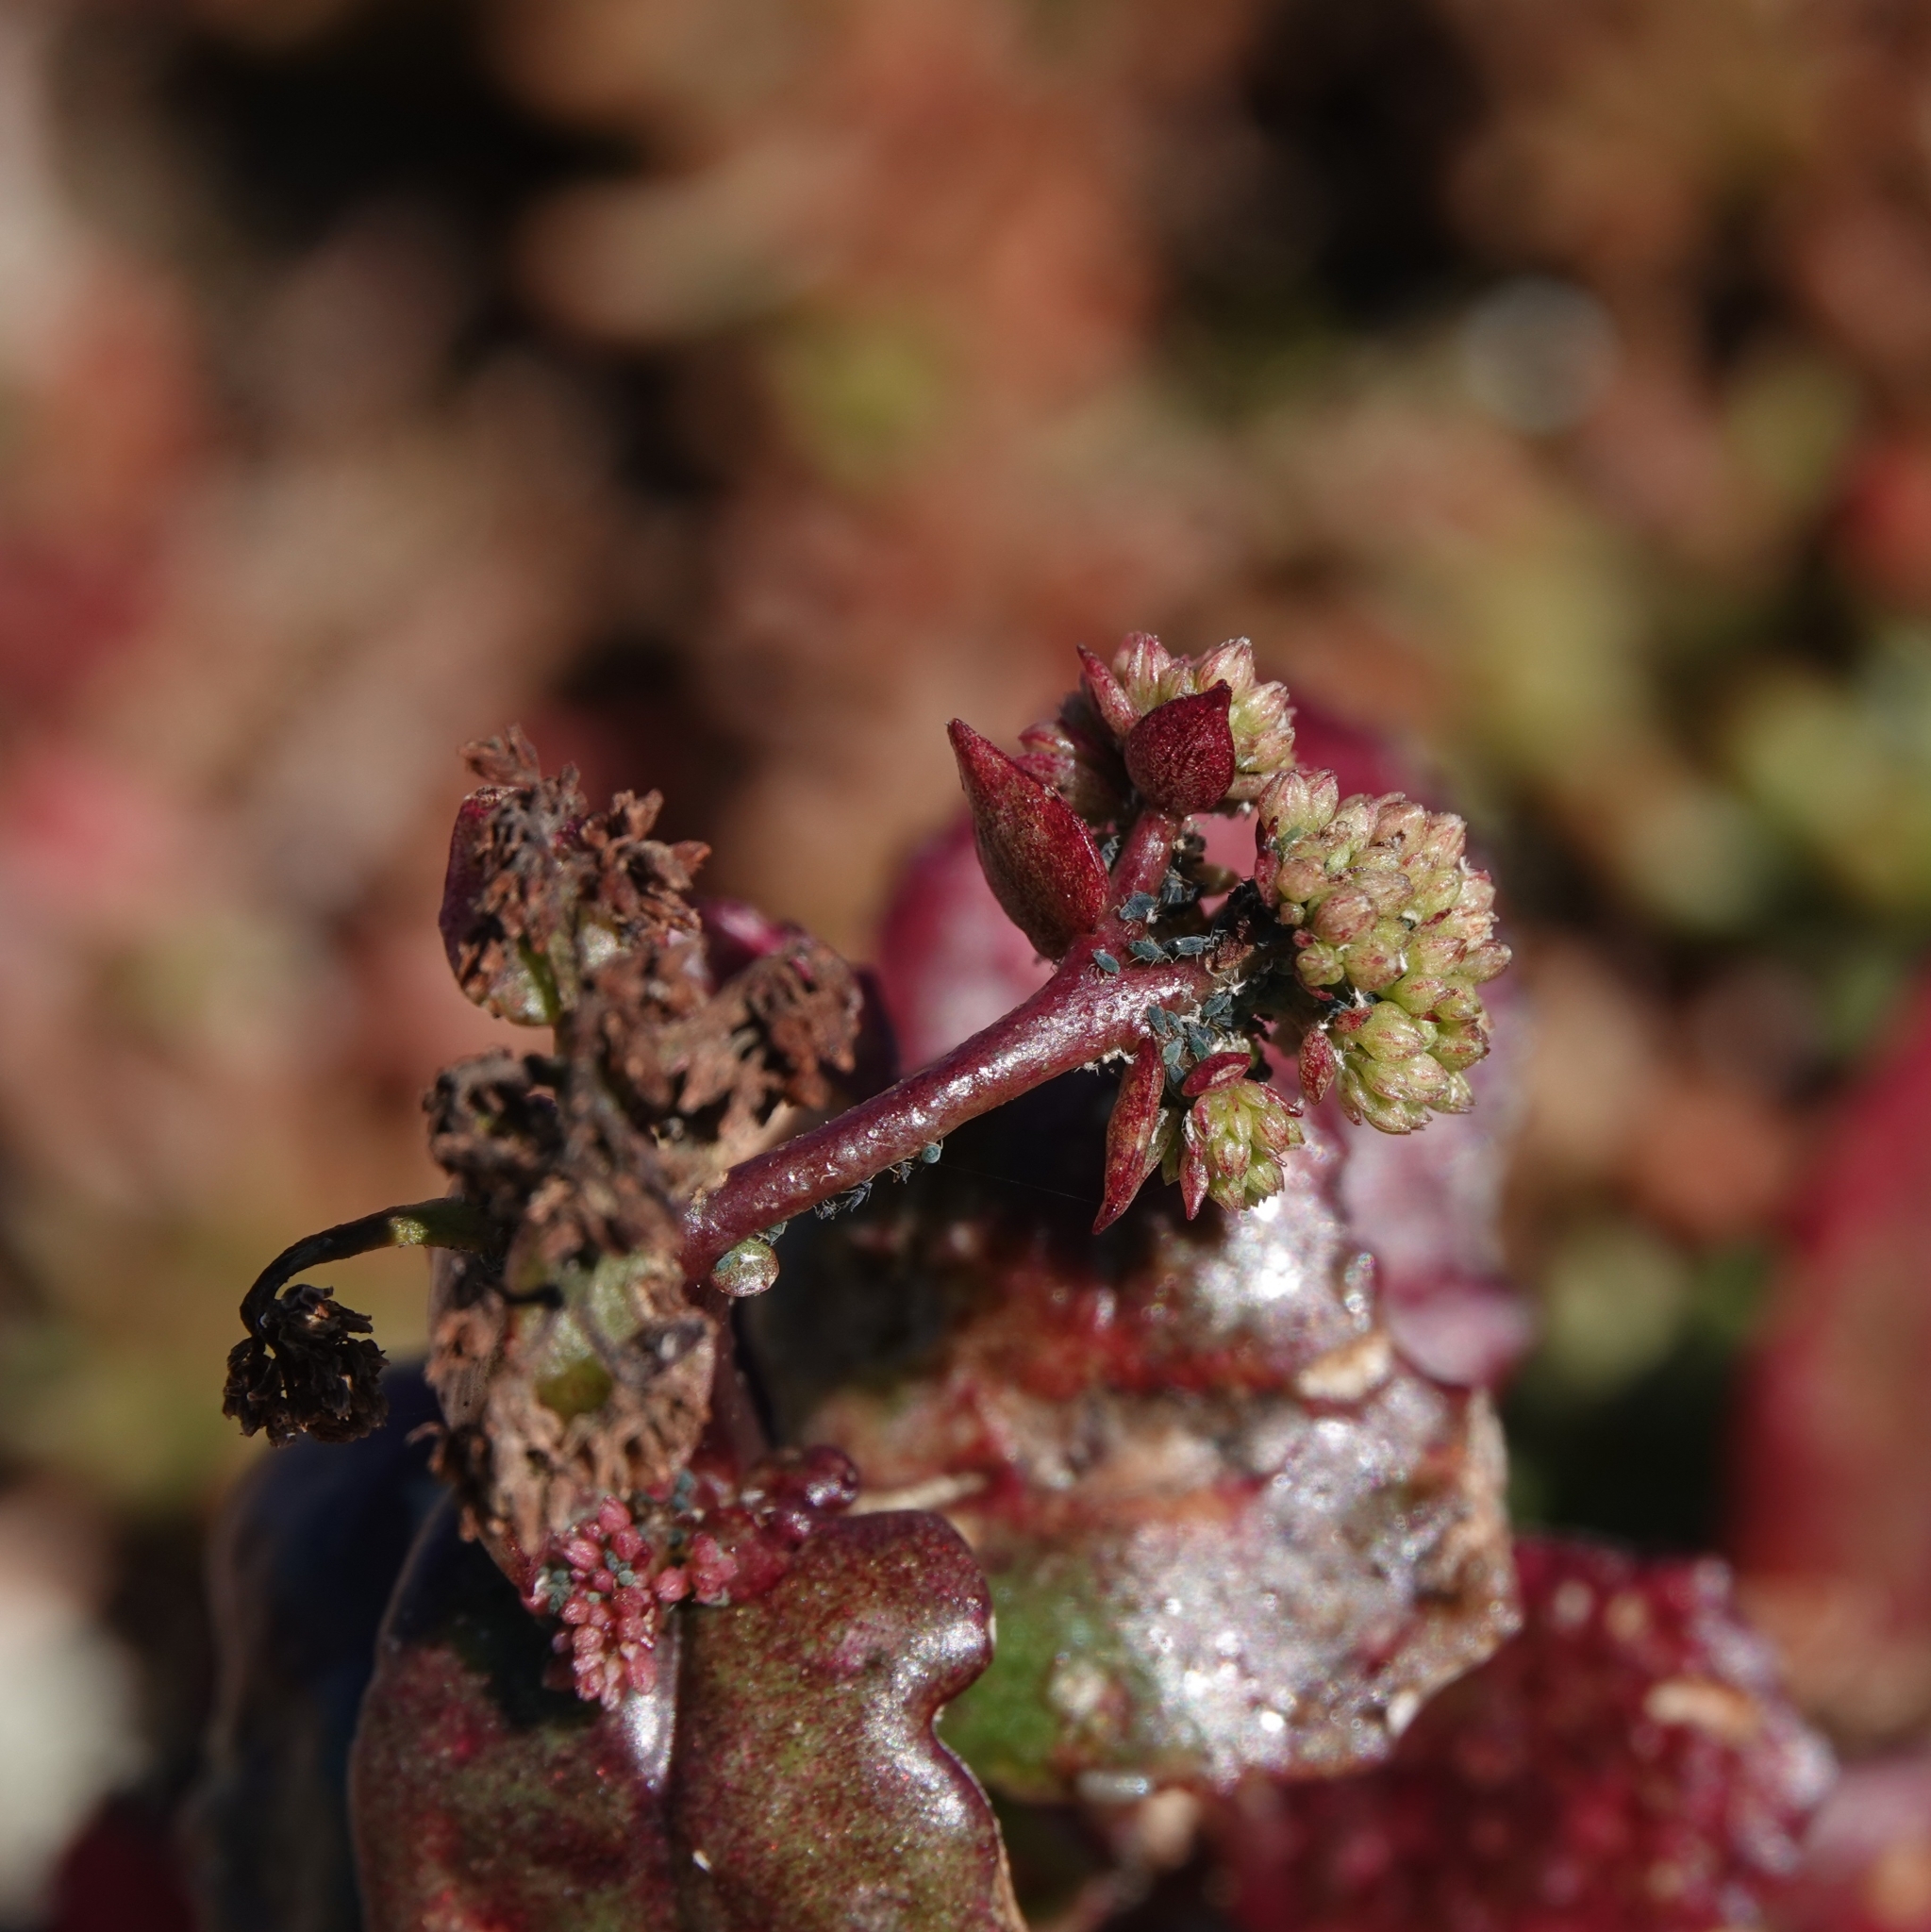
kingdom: Plantae
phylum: Tracheophyta
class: Magnoliopsida
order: Saxifragales
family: Crassulaceae
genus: Hylotelephium
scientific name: Hylotelephium maximum
